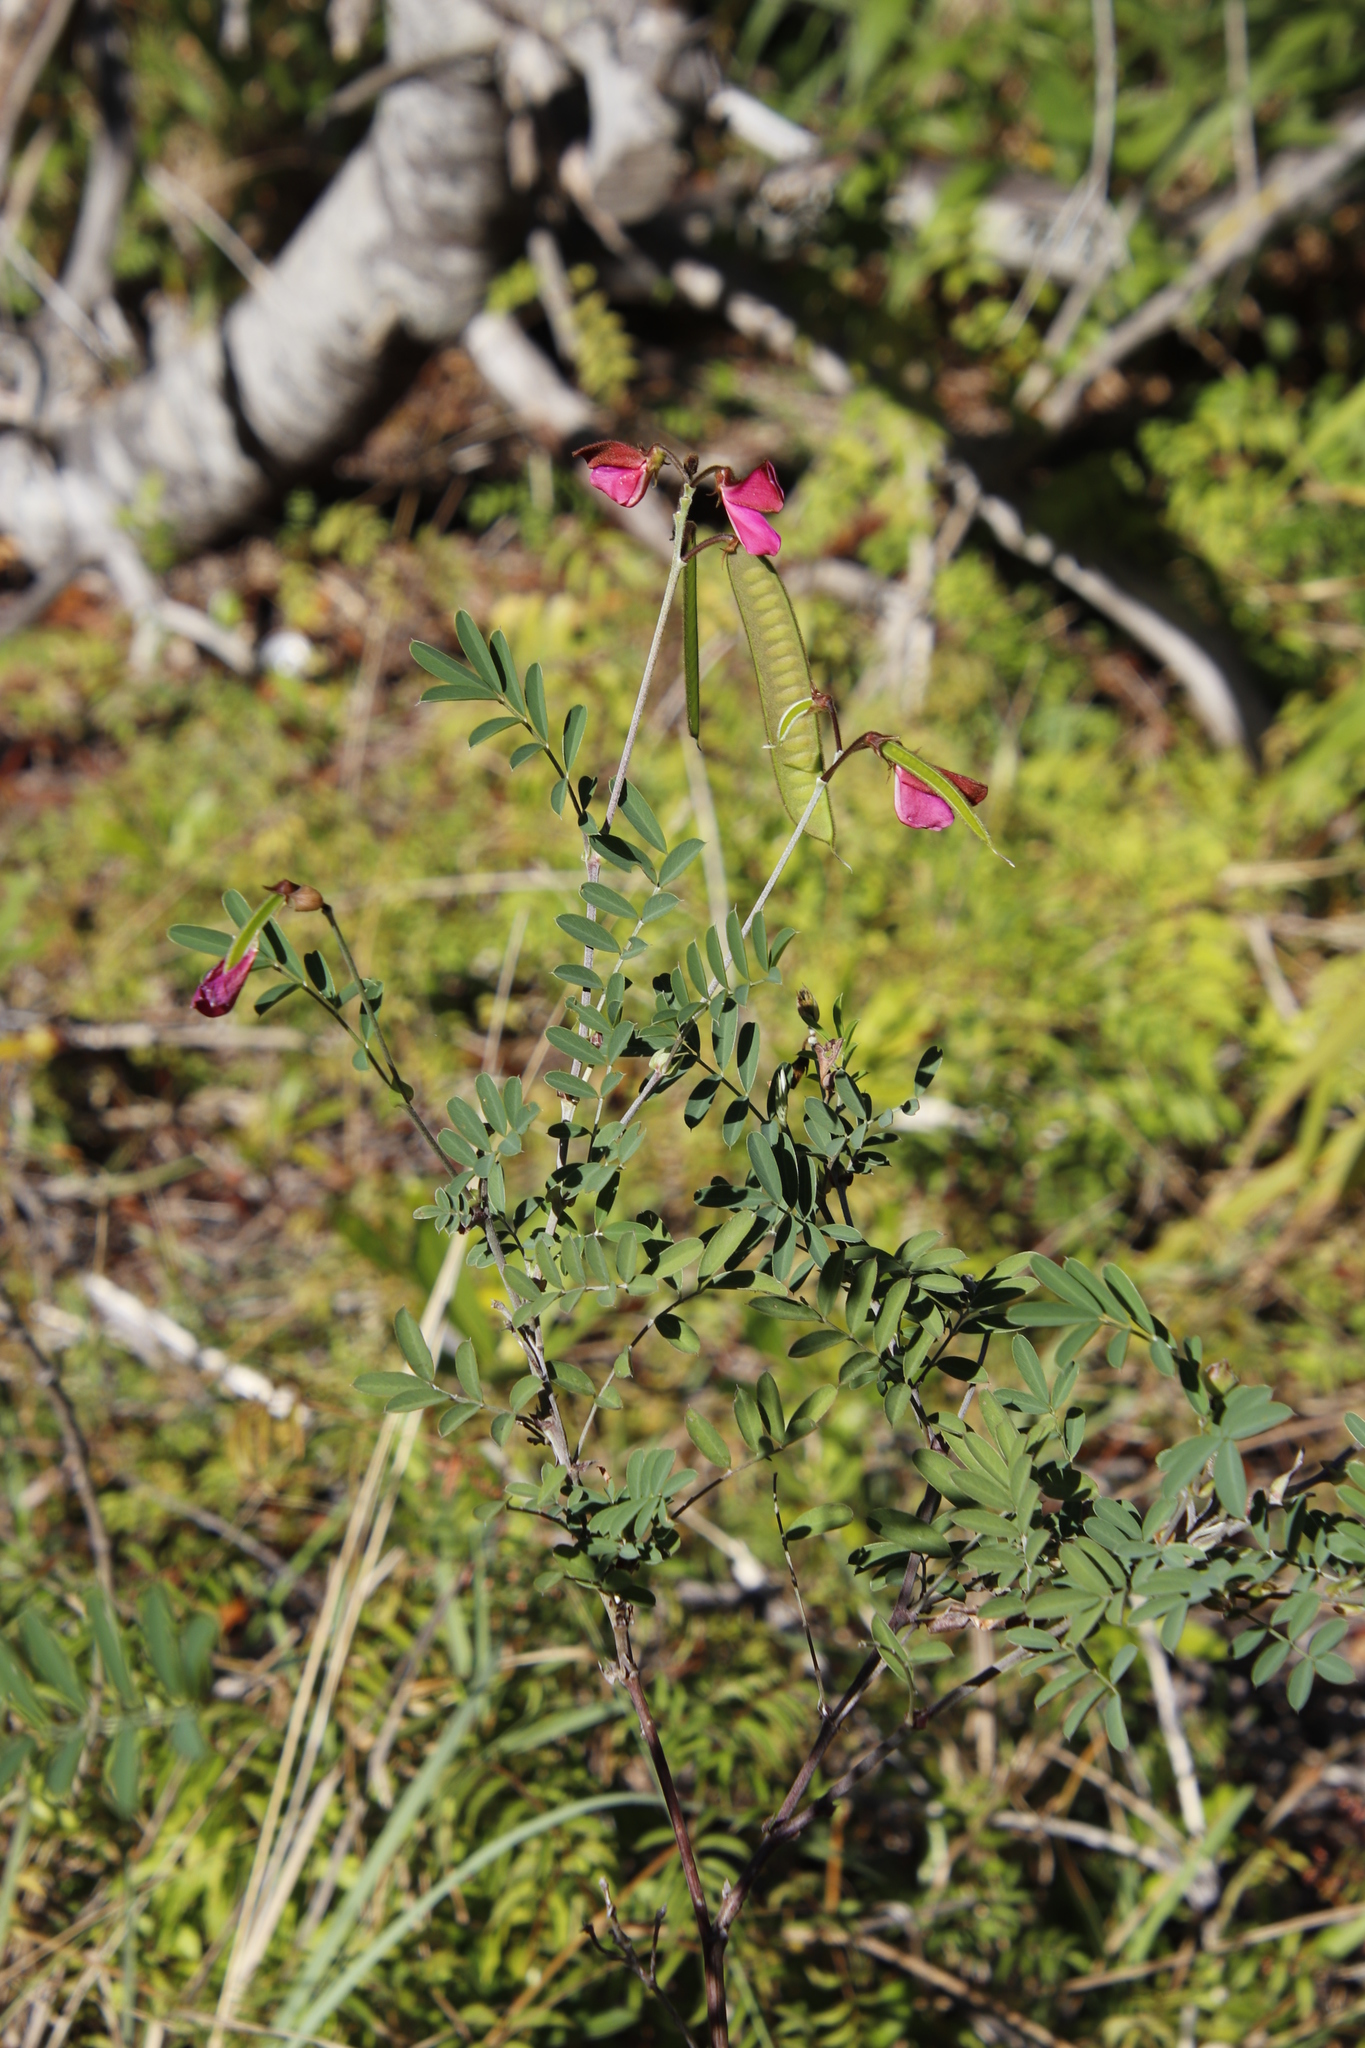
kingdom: Plantae
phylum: Tracheophyta
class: Magnoliopsida
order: Fabales
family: Fabaceae
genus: Tephrosia
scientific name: Tephrosia grandiflora
